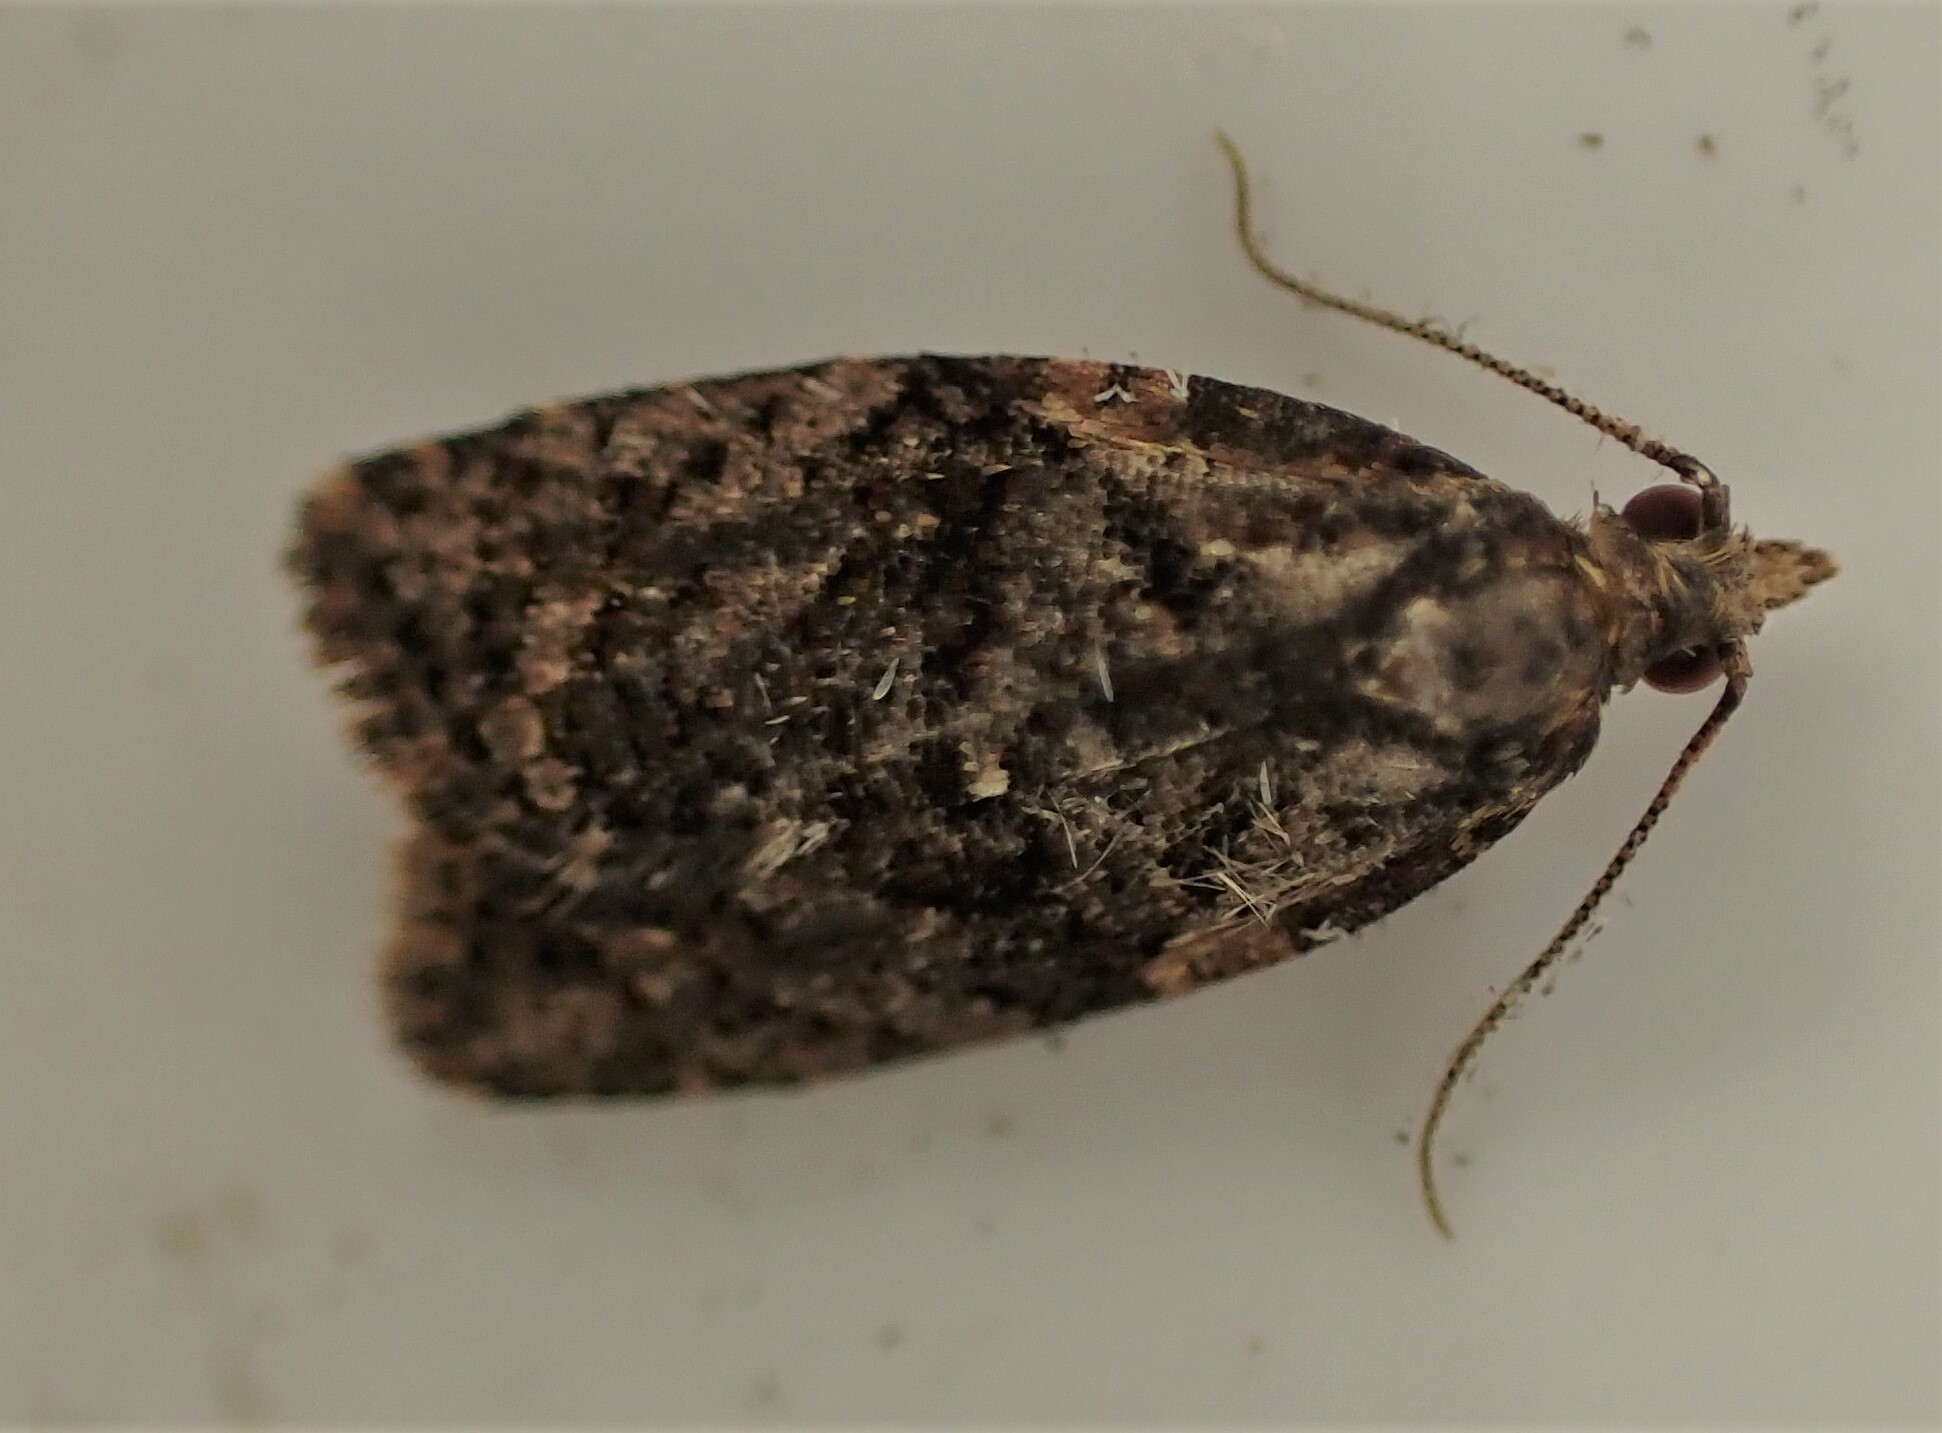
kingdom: Animalia
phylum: Arthropoda
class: Insecta
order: Lepidoptera
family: Tortricidae
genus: Capua
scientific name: Capua intractana
